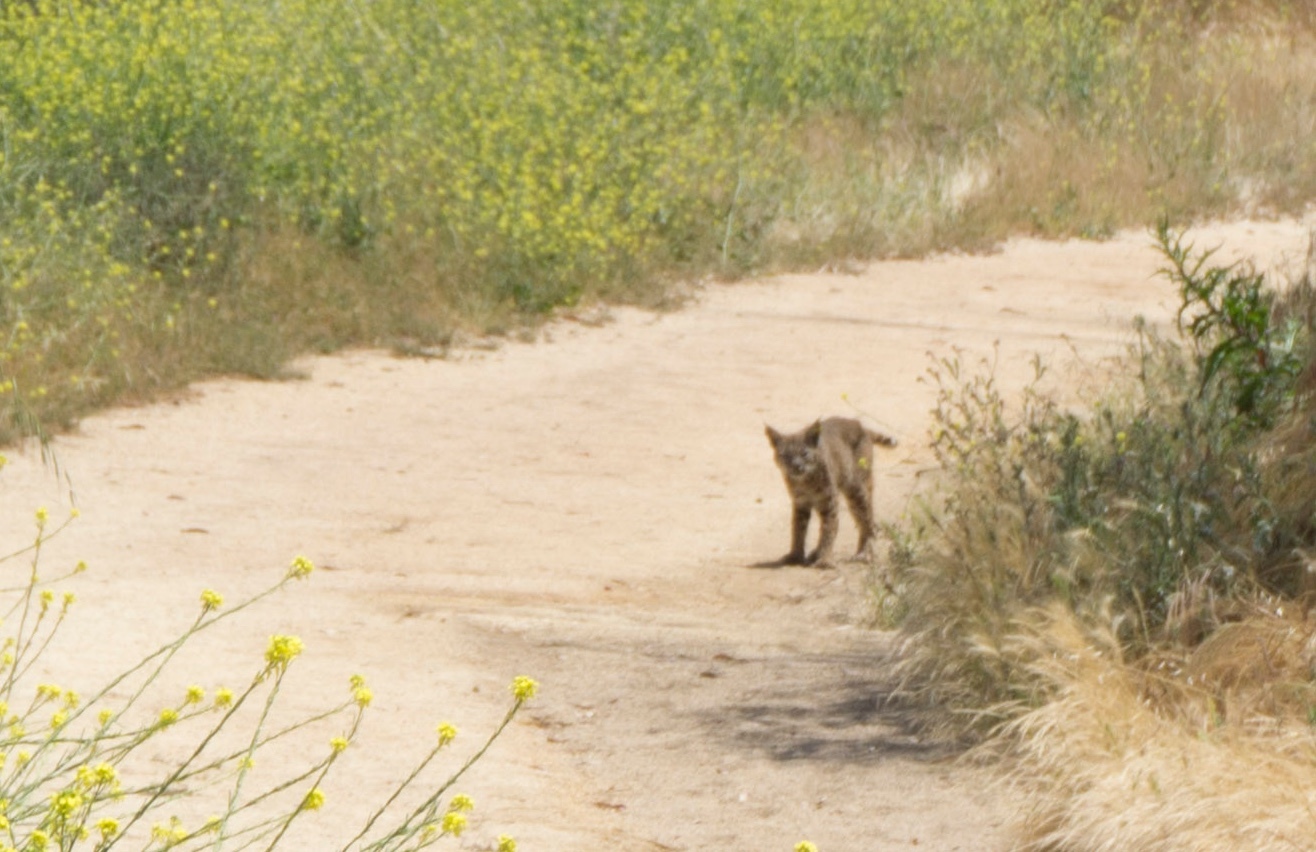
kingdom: Animalia
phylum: Chordata
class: Mammalia
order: Carnivora
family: Felidae
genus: Lynx
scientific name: Lynx rufus
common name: Bobcat
